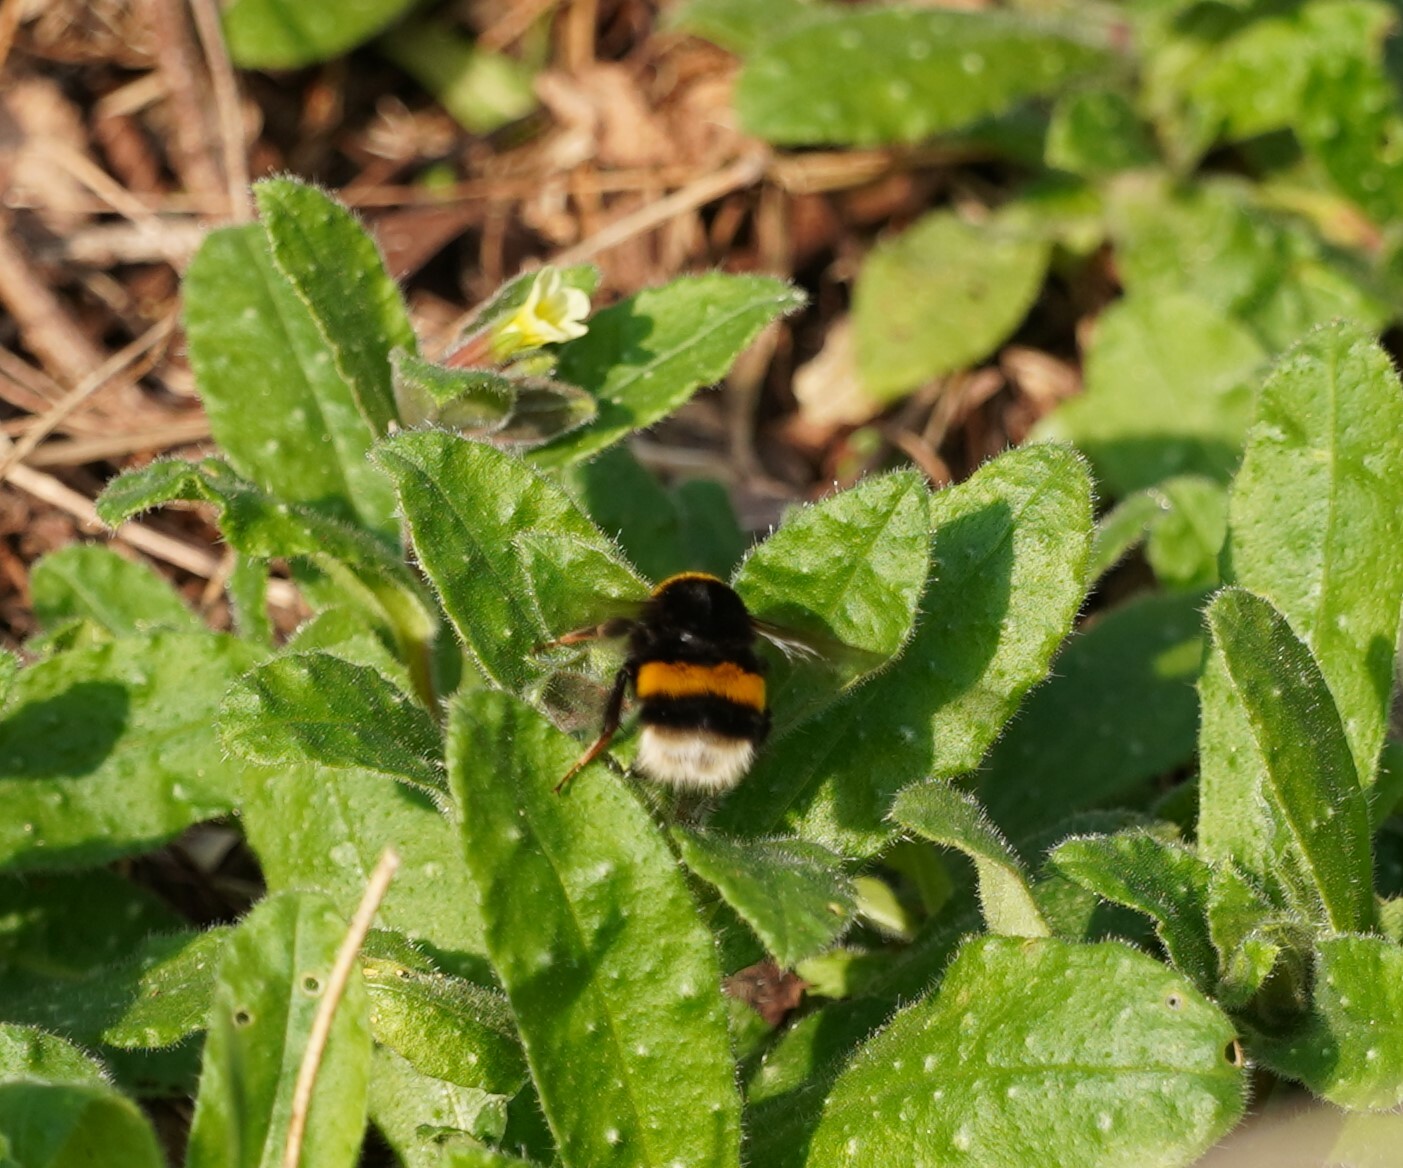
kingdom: Animalia
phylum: Arthropoda
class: Insecta
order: Hymenoptera
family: Apidae
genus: Bombus
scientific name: Bombus
